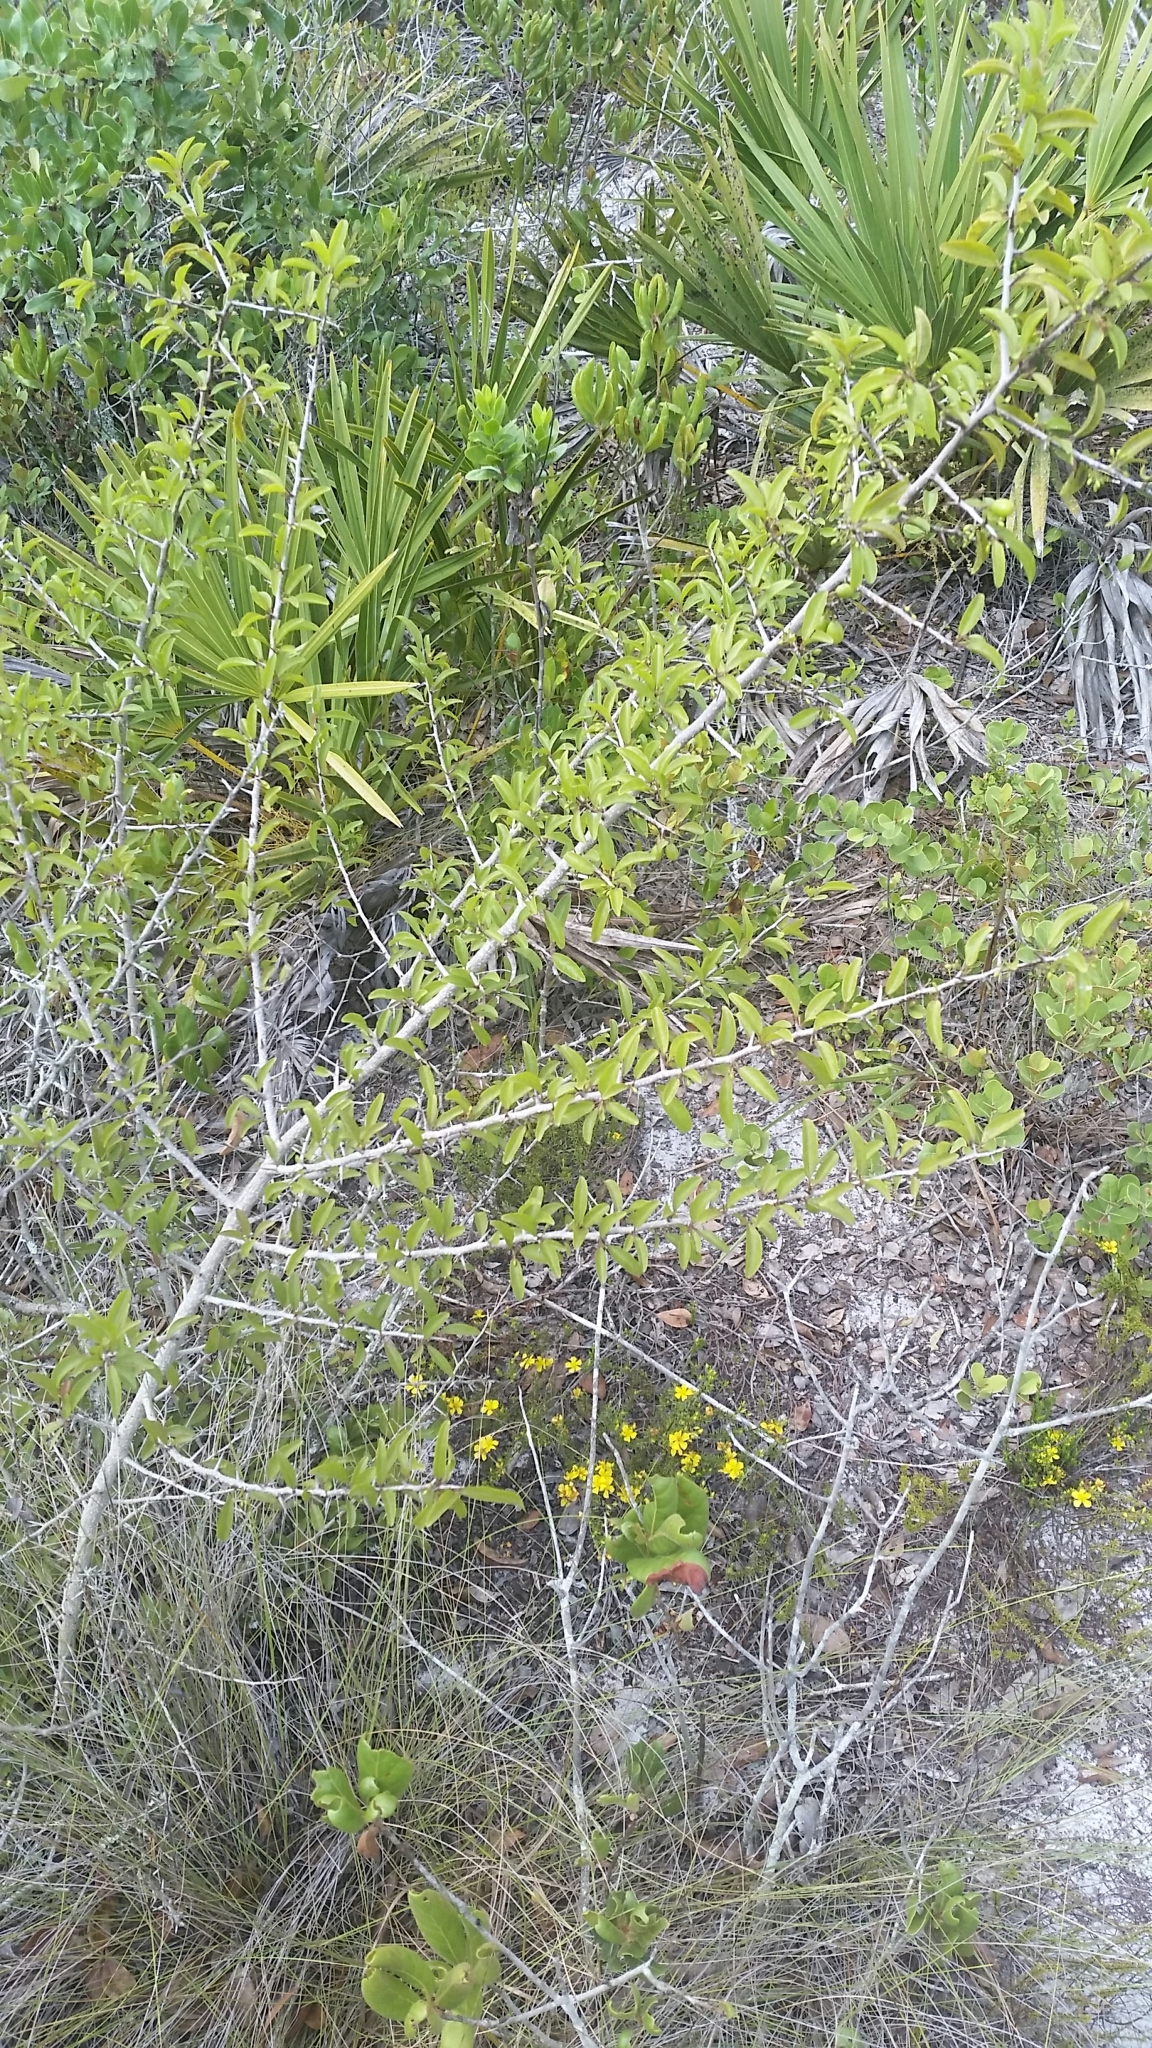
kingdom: Plantae
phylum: Tracheophyta
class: Magnoliopsida
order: Santalales
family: Ximeniaceae
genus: Ximenia
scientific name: Ximenia americana
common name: Tallowwood
